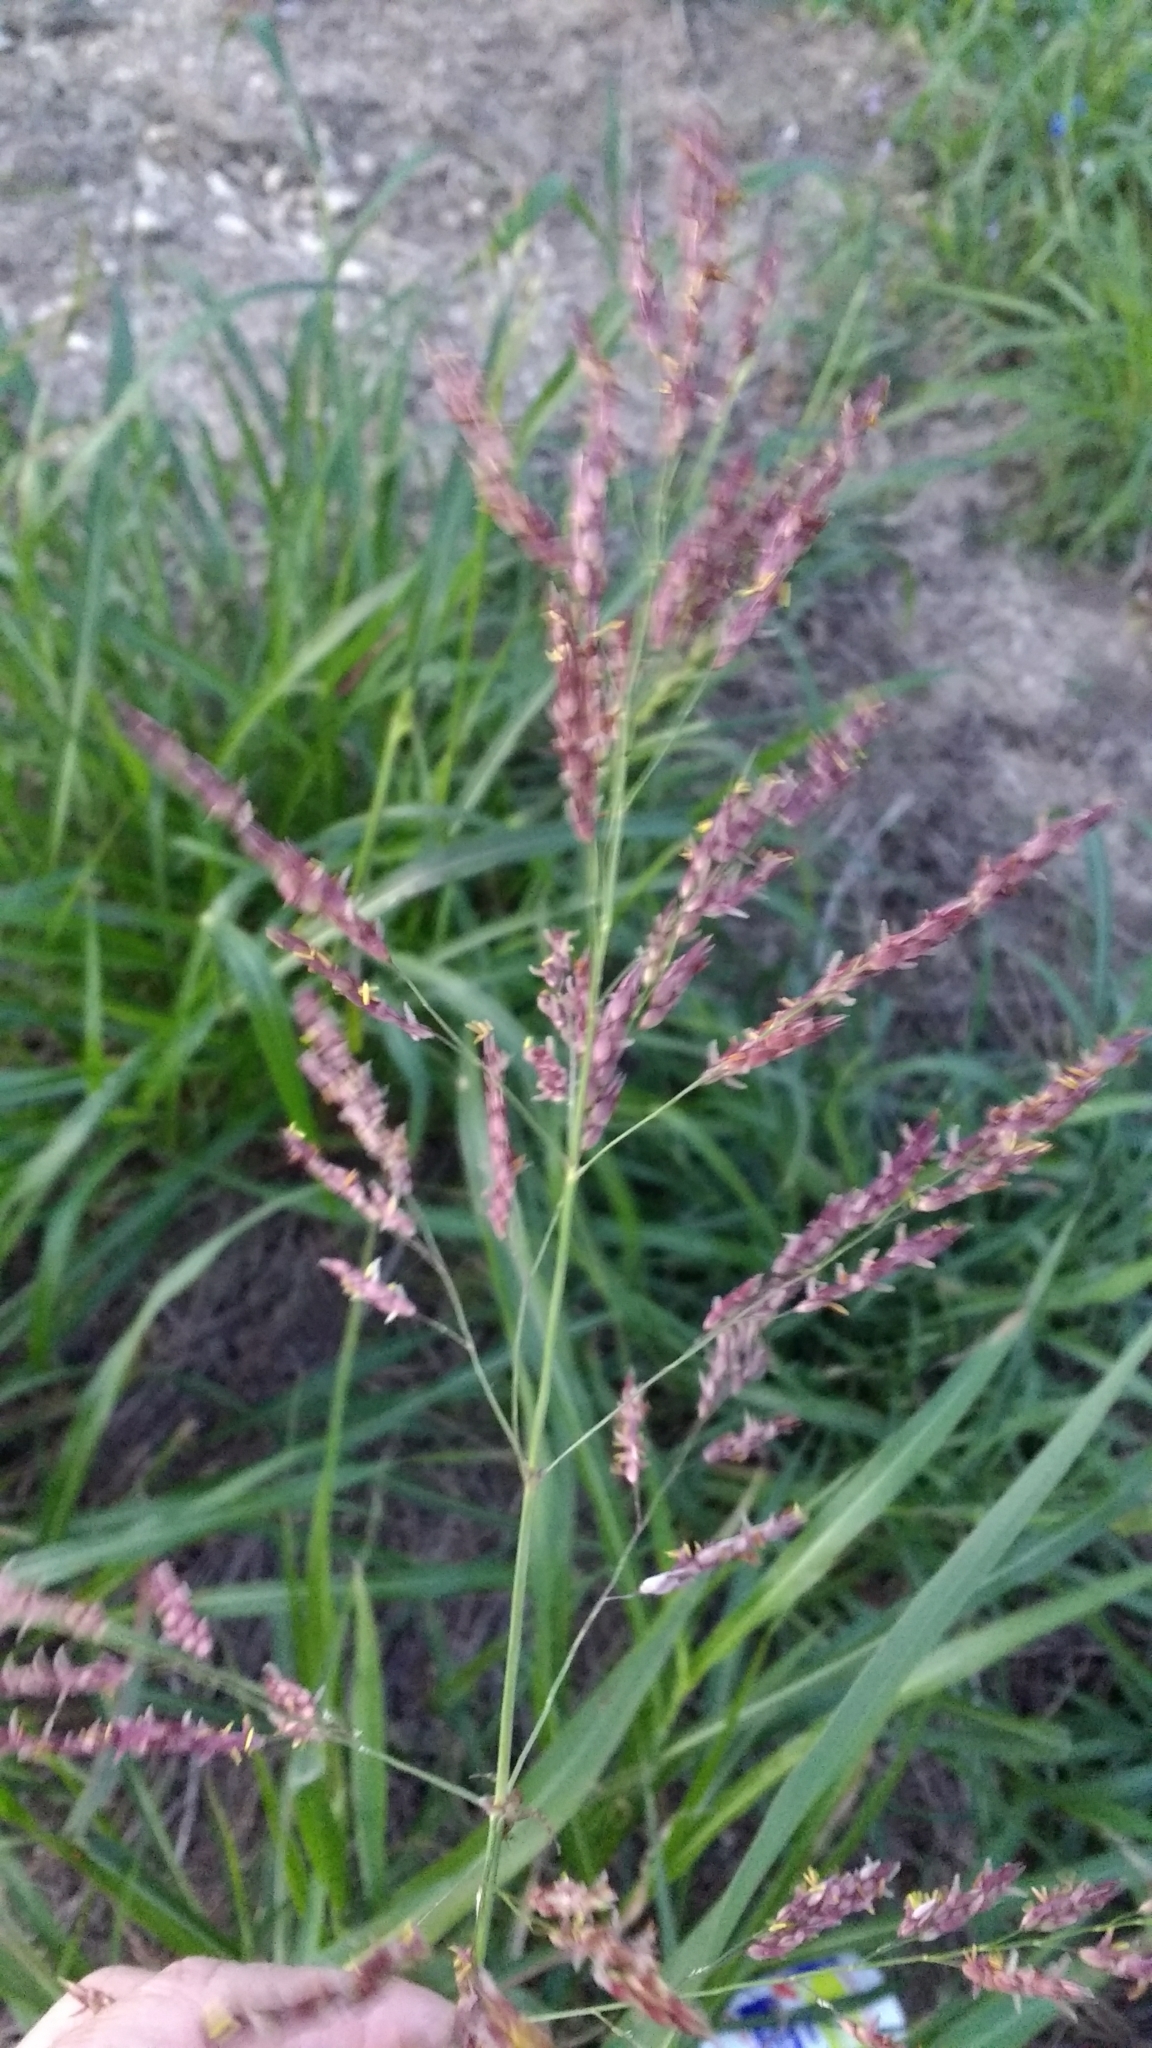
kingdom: Plantae
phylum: Tracheophyta
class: Liliopsida
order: Poales
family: Poaceae
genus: Sorghum
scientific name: Sorghum halepense
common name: Johnson-grass
